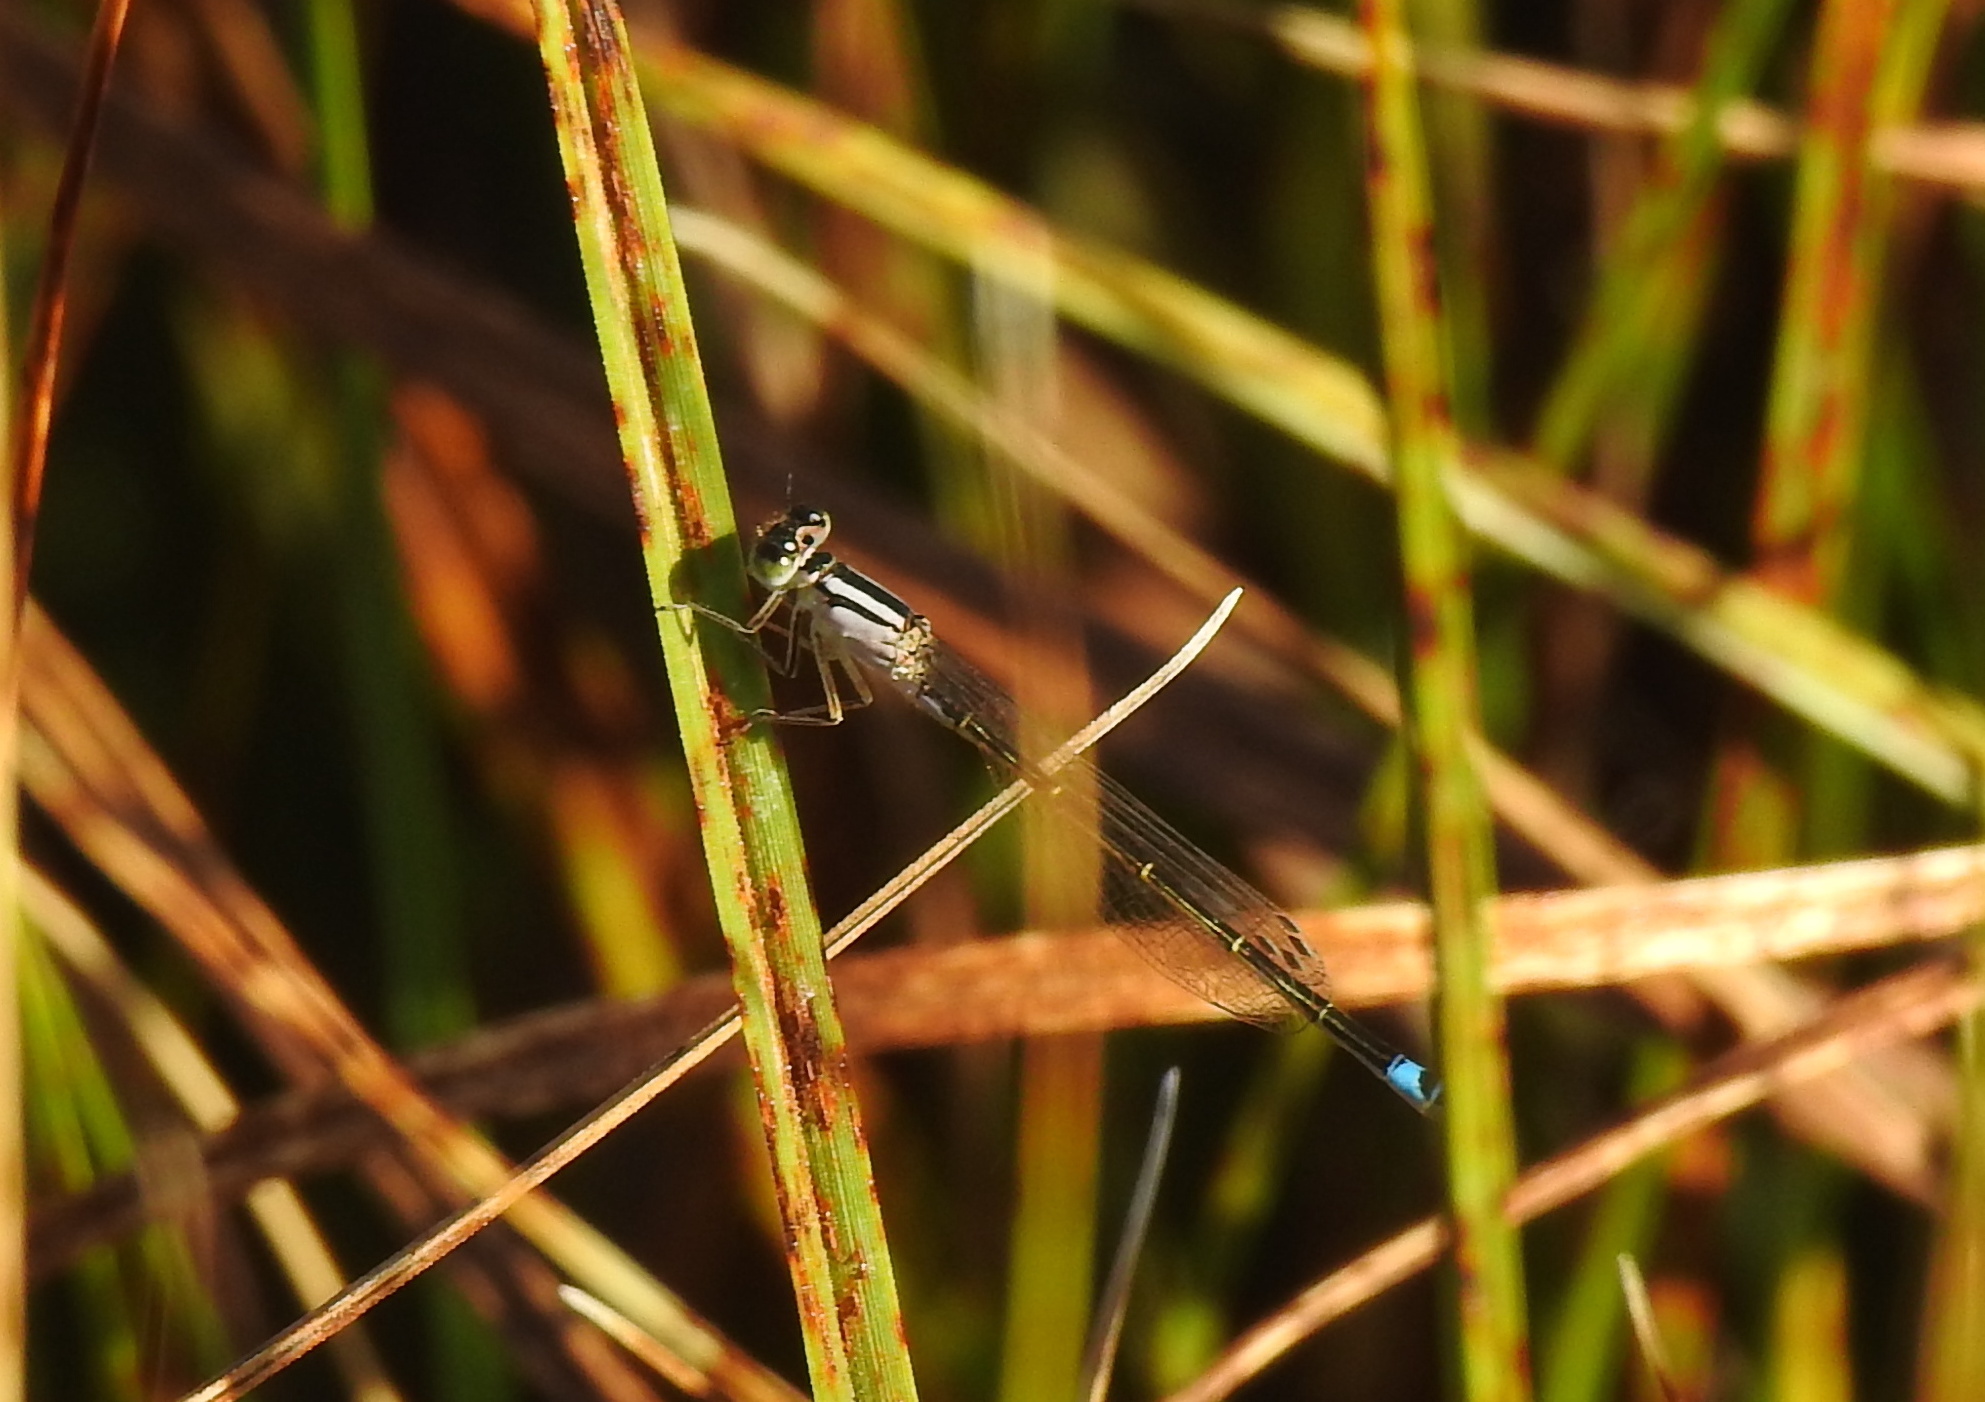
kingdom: Animalia
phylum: Arthropoda
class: Insecta
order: Odonata
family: Coenagrionidae
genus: Ischnura
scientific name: Ischnura graellsii
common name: Iberian bluetail
